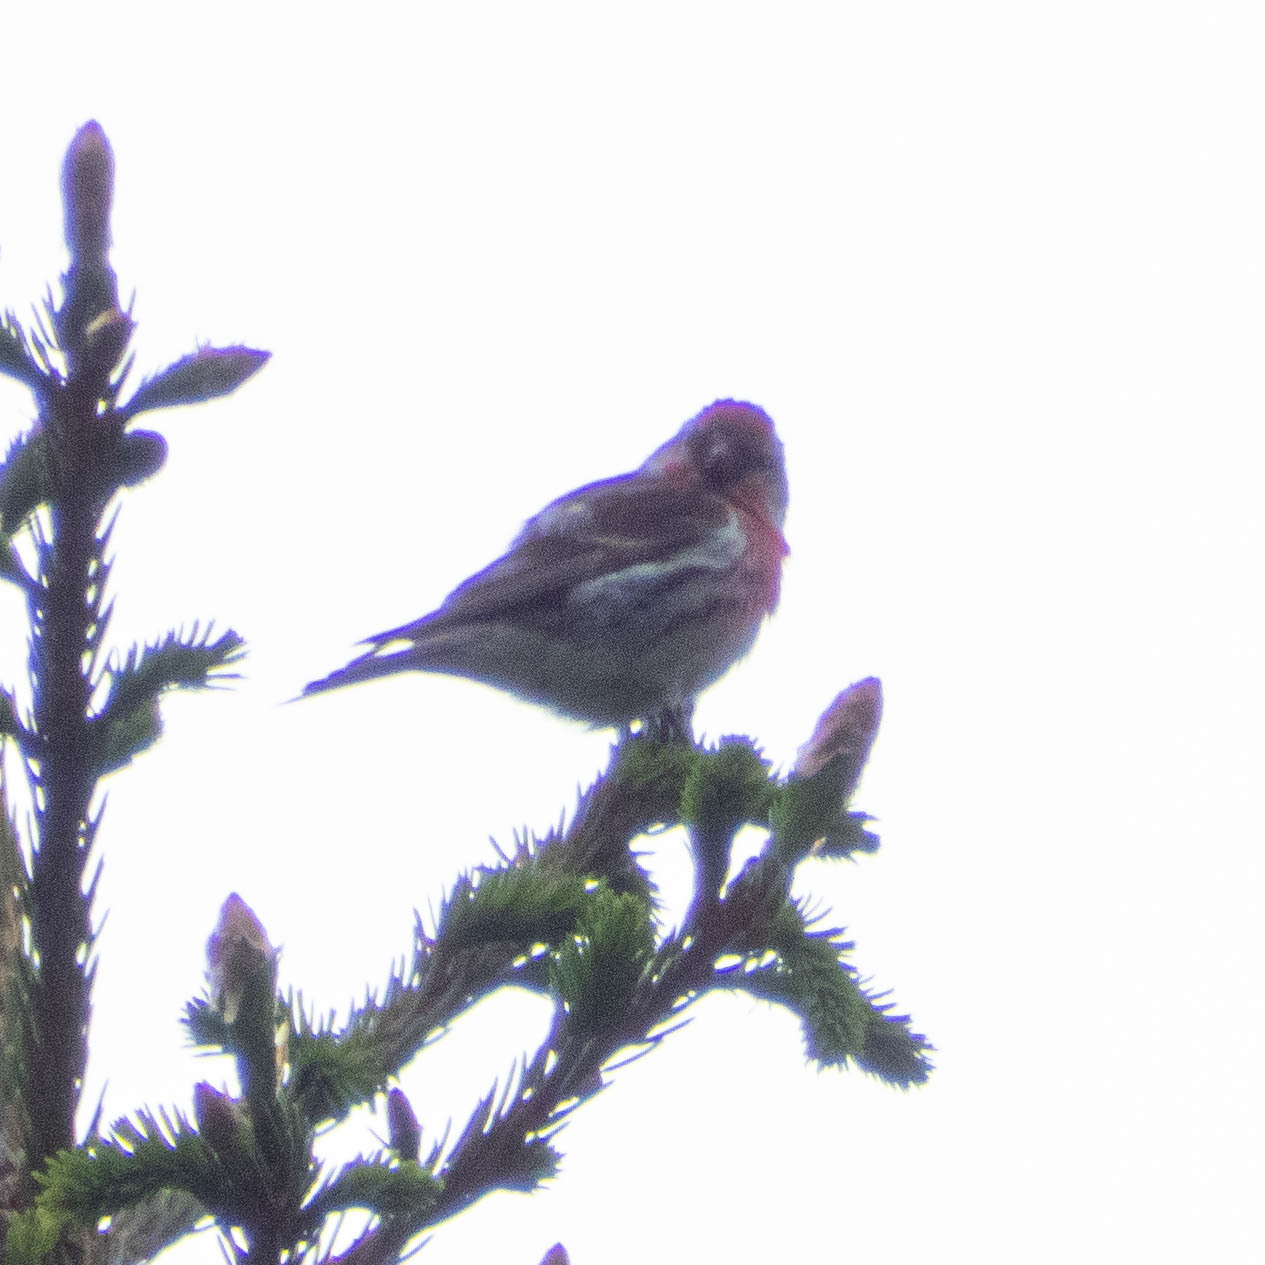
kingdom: Animalia
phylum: Chordata
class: Aves
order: Passeriformes
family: Fringillidae
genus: Acanthis
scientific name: Acanthis flammea
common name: Common redpoll
